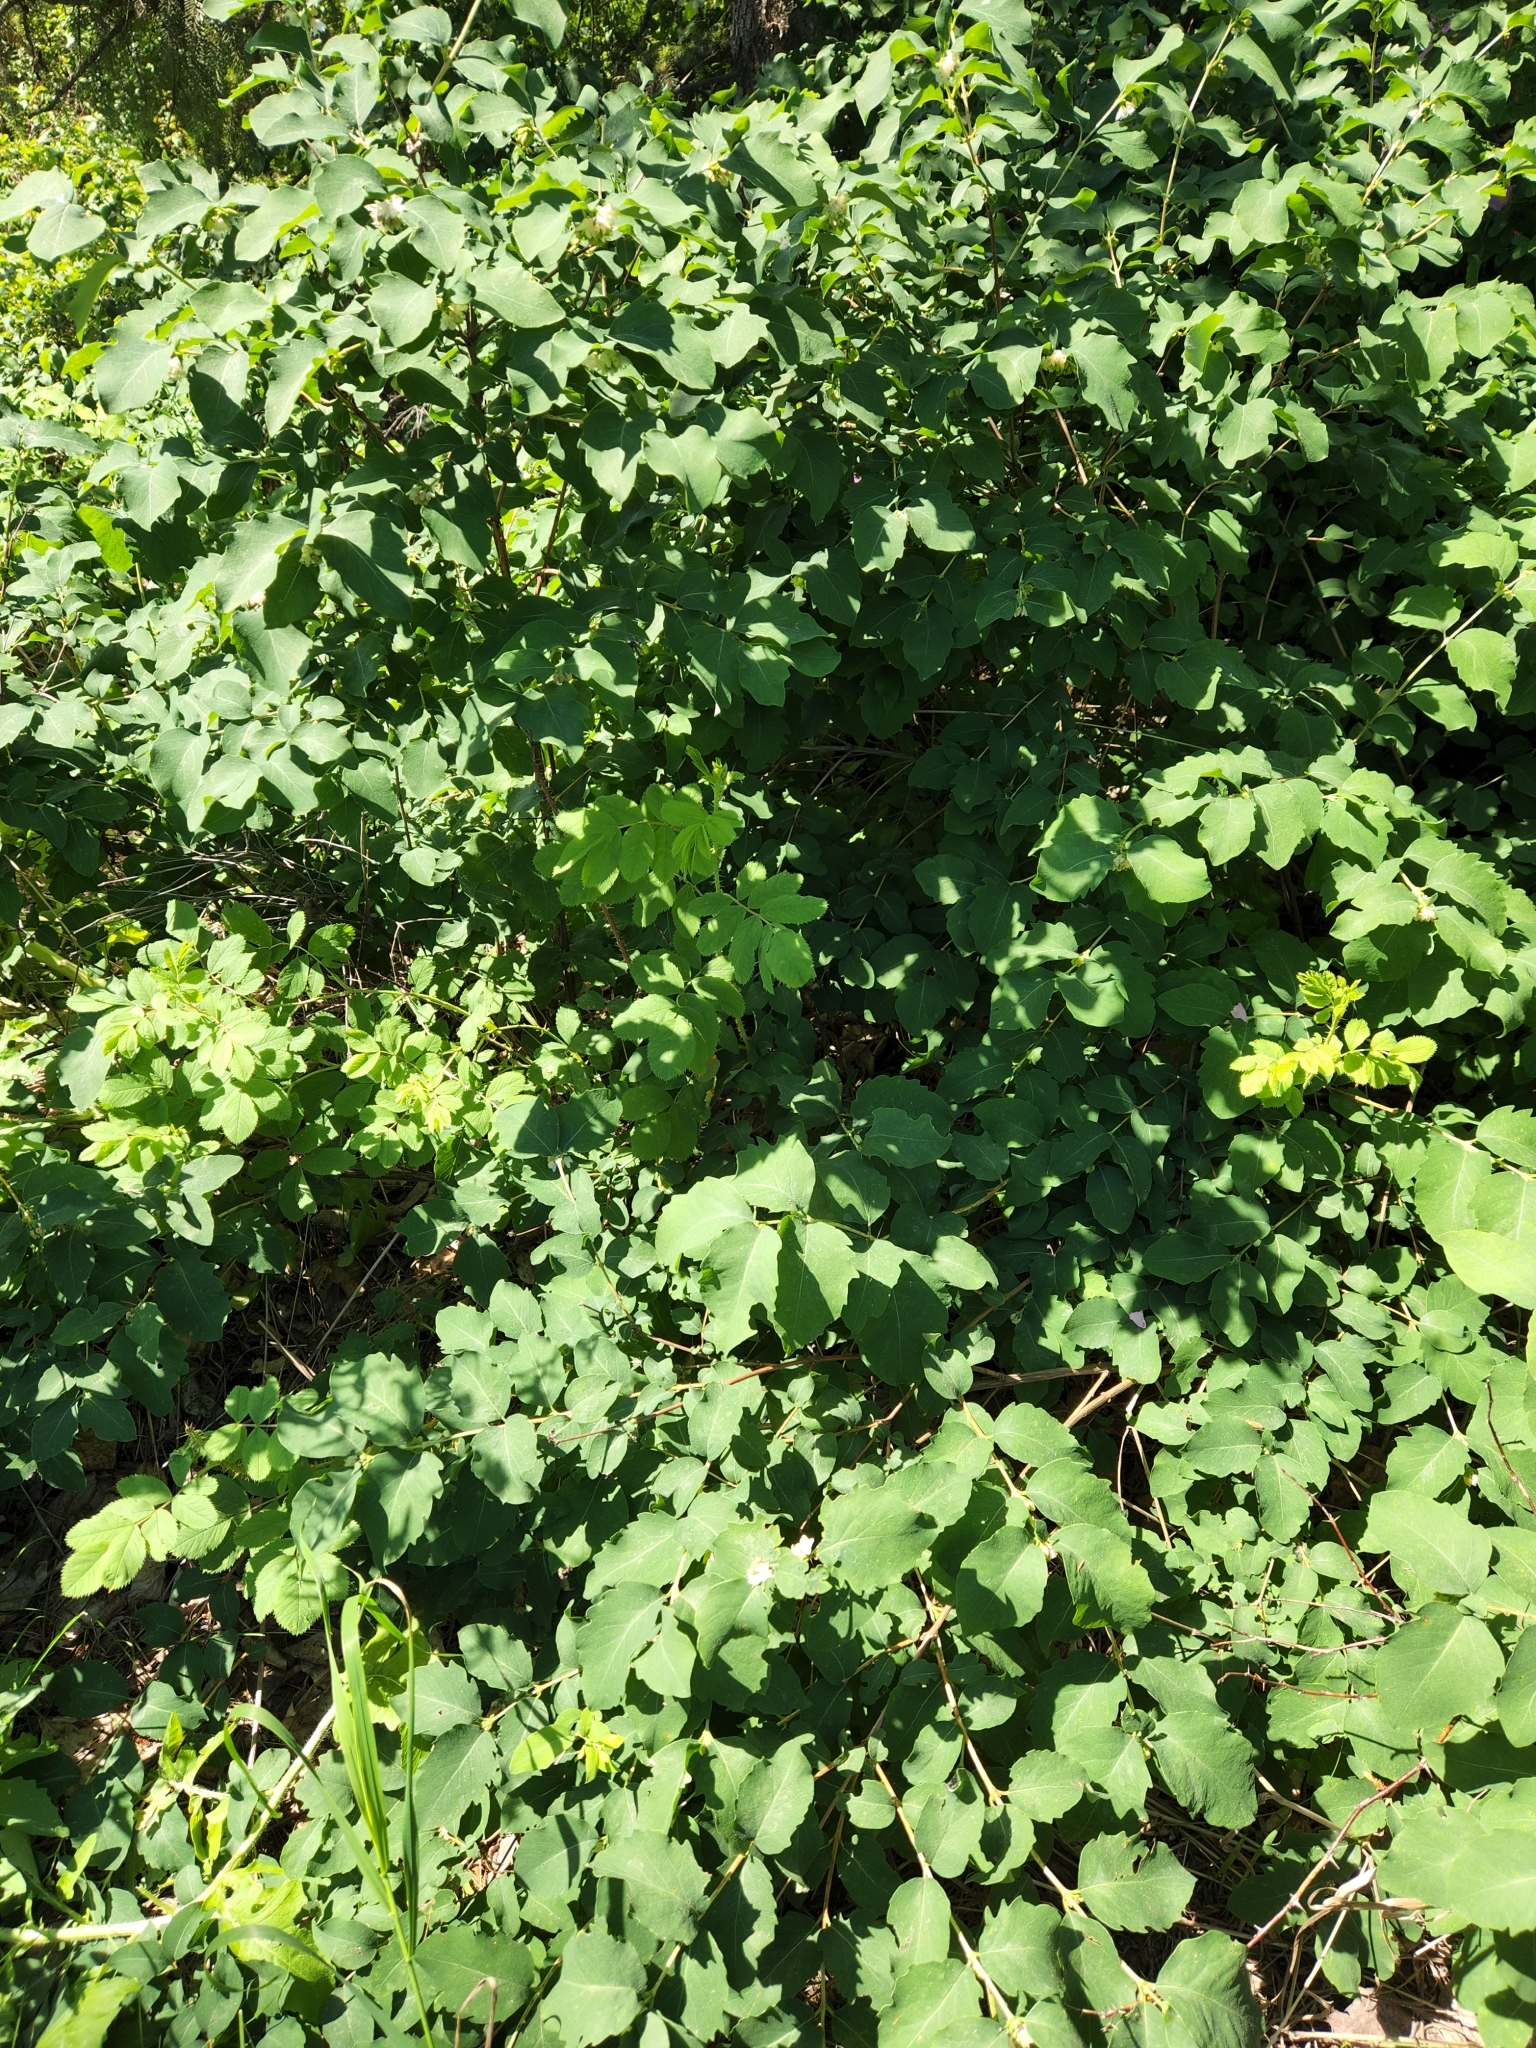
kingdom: Plantae
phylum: Tracheophyta
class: Magnoliopsida
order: Dipsacales
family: Caprifoliaceae
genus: Symphoricarpos
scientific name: Symphoricarpos occidentalis
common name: Wolfberry
